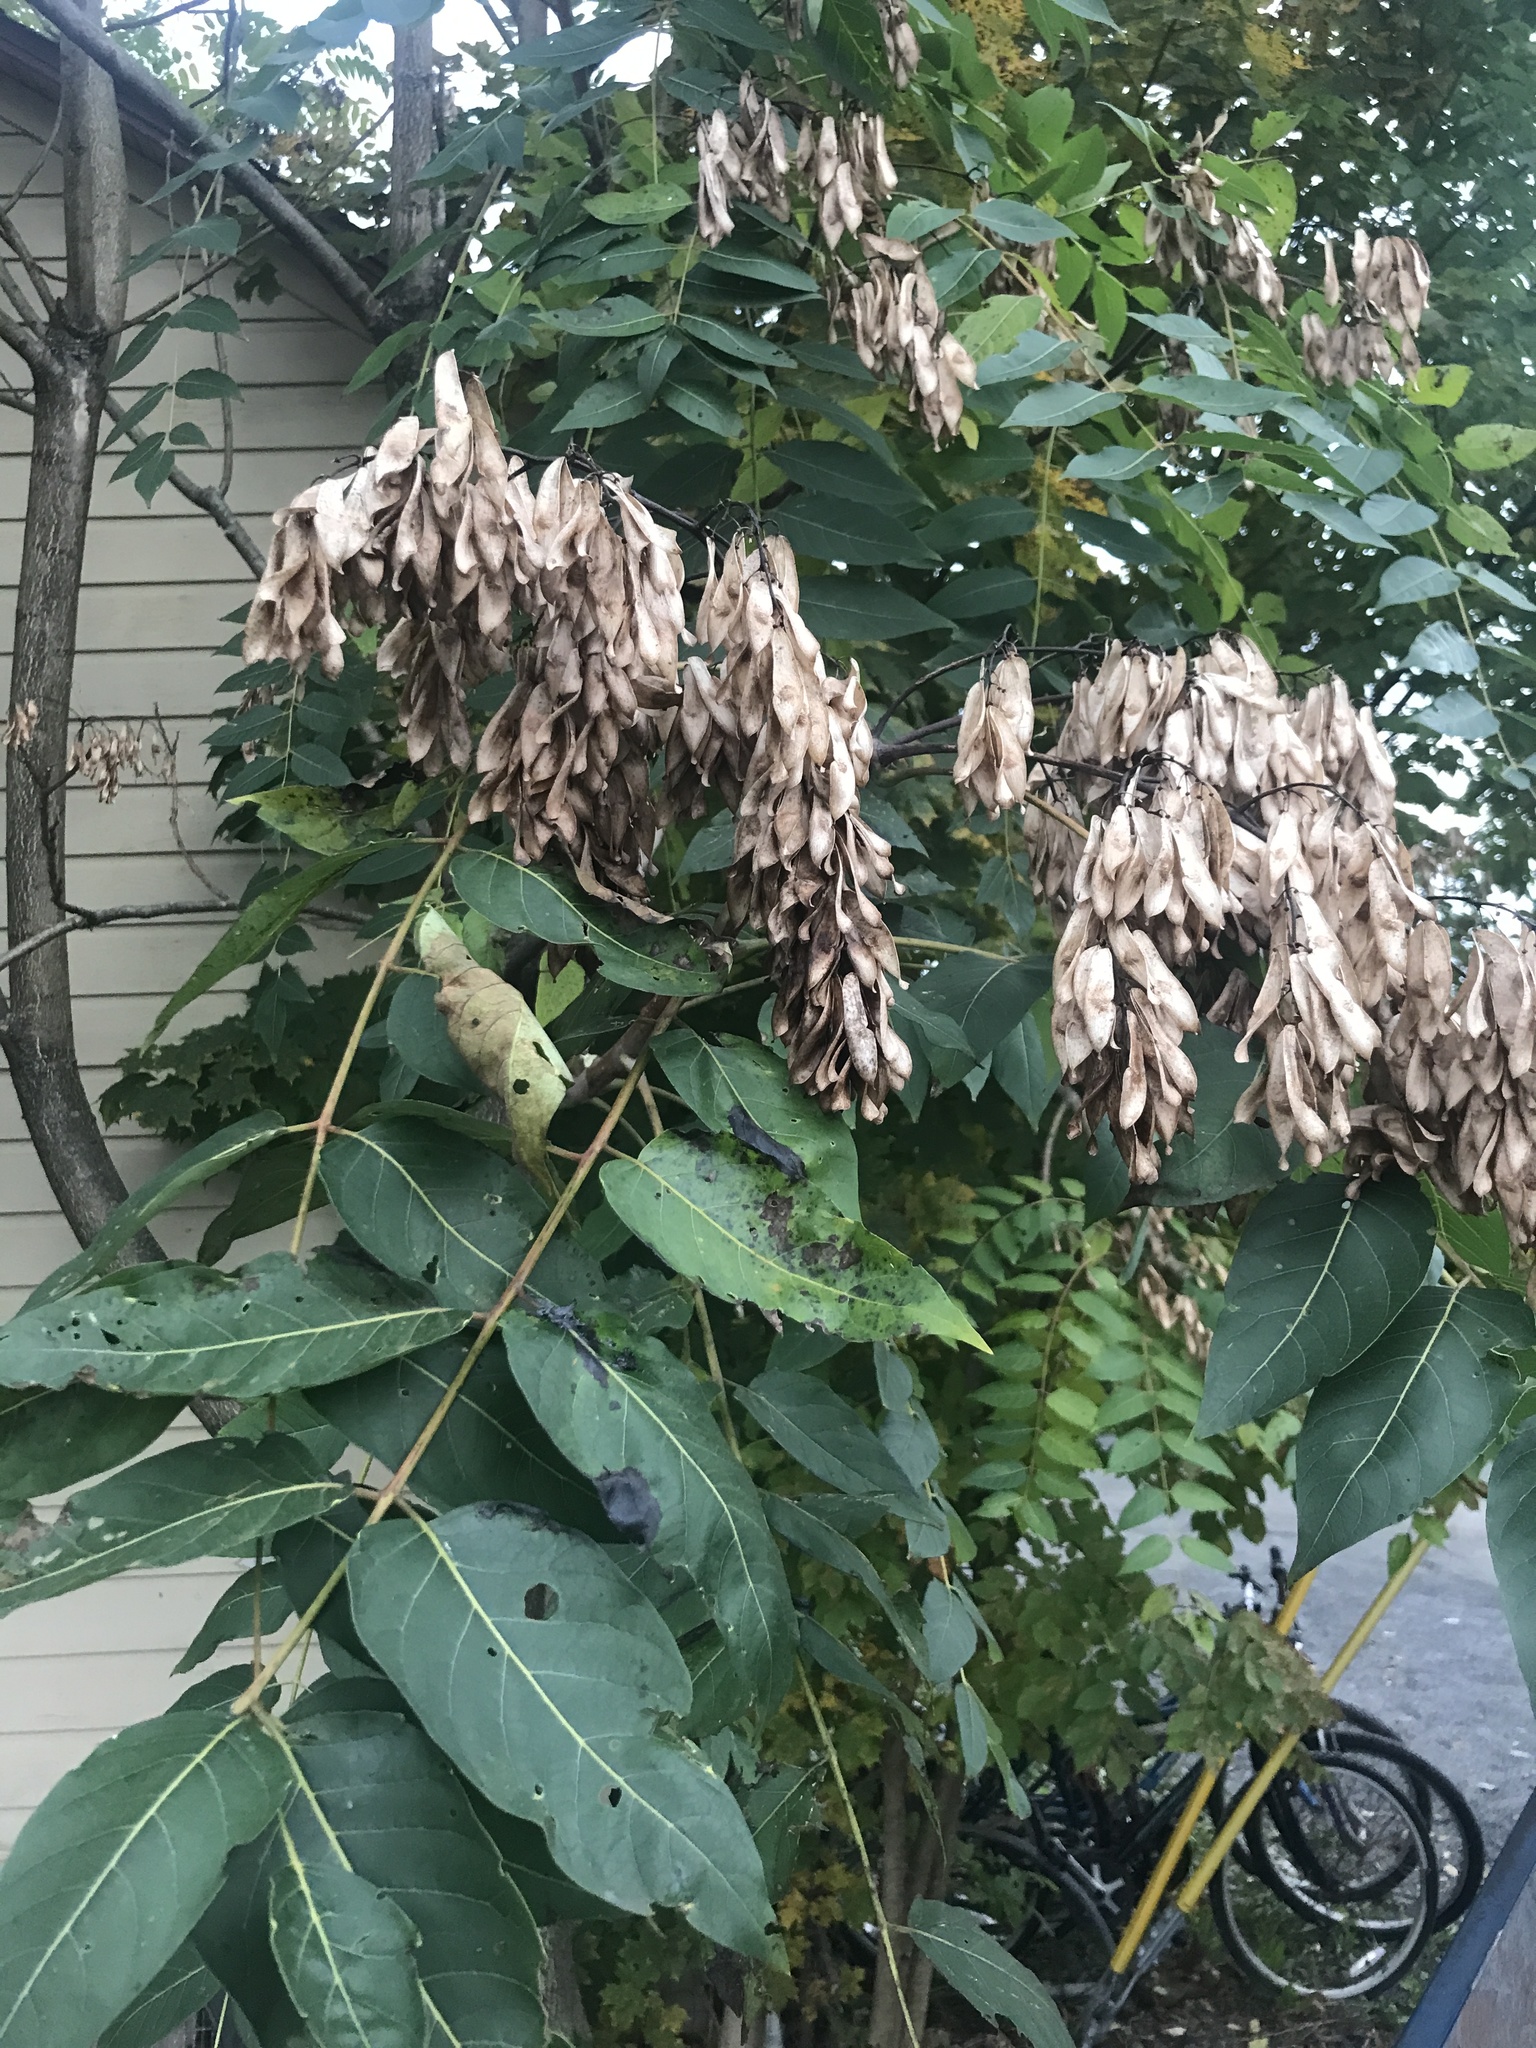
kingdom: Plantae
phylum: Tracheophyta
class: Magnoliopsida
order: Sapindales
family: Simaroubaceae
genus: Ailanthus
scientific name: Ailanthus altissima
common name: Tree-of-heaven
